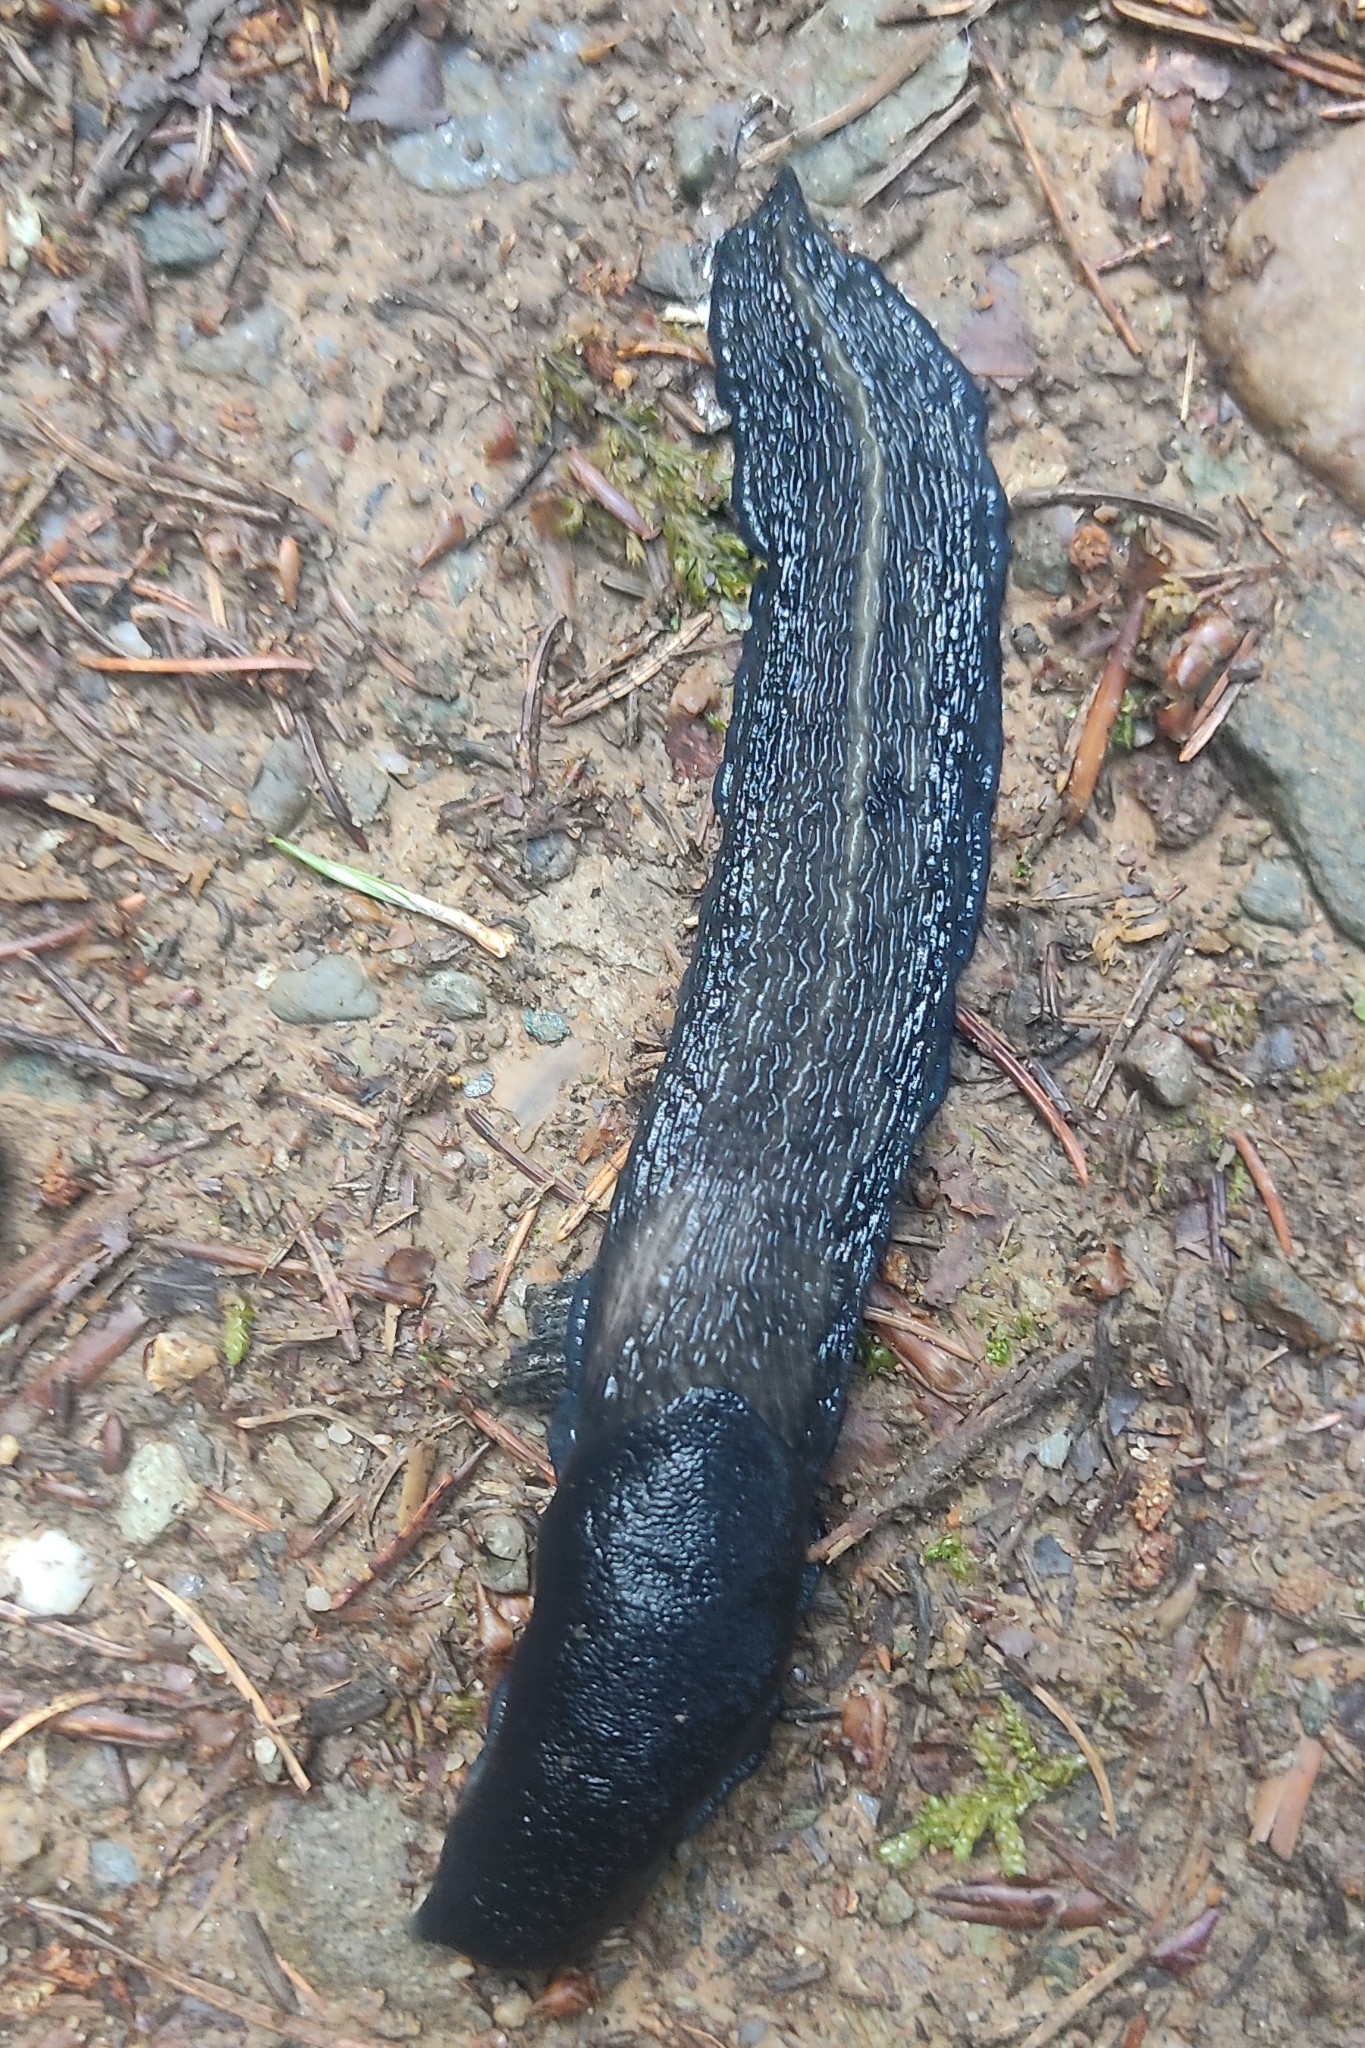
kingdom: Animalia
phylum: Mollusca
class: Gastropoda
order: Stylommatophora
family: Limacidae
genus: Limax
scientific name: Limax cinereoniger
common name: Ash-black slug
